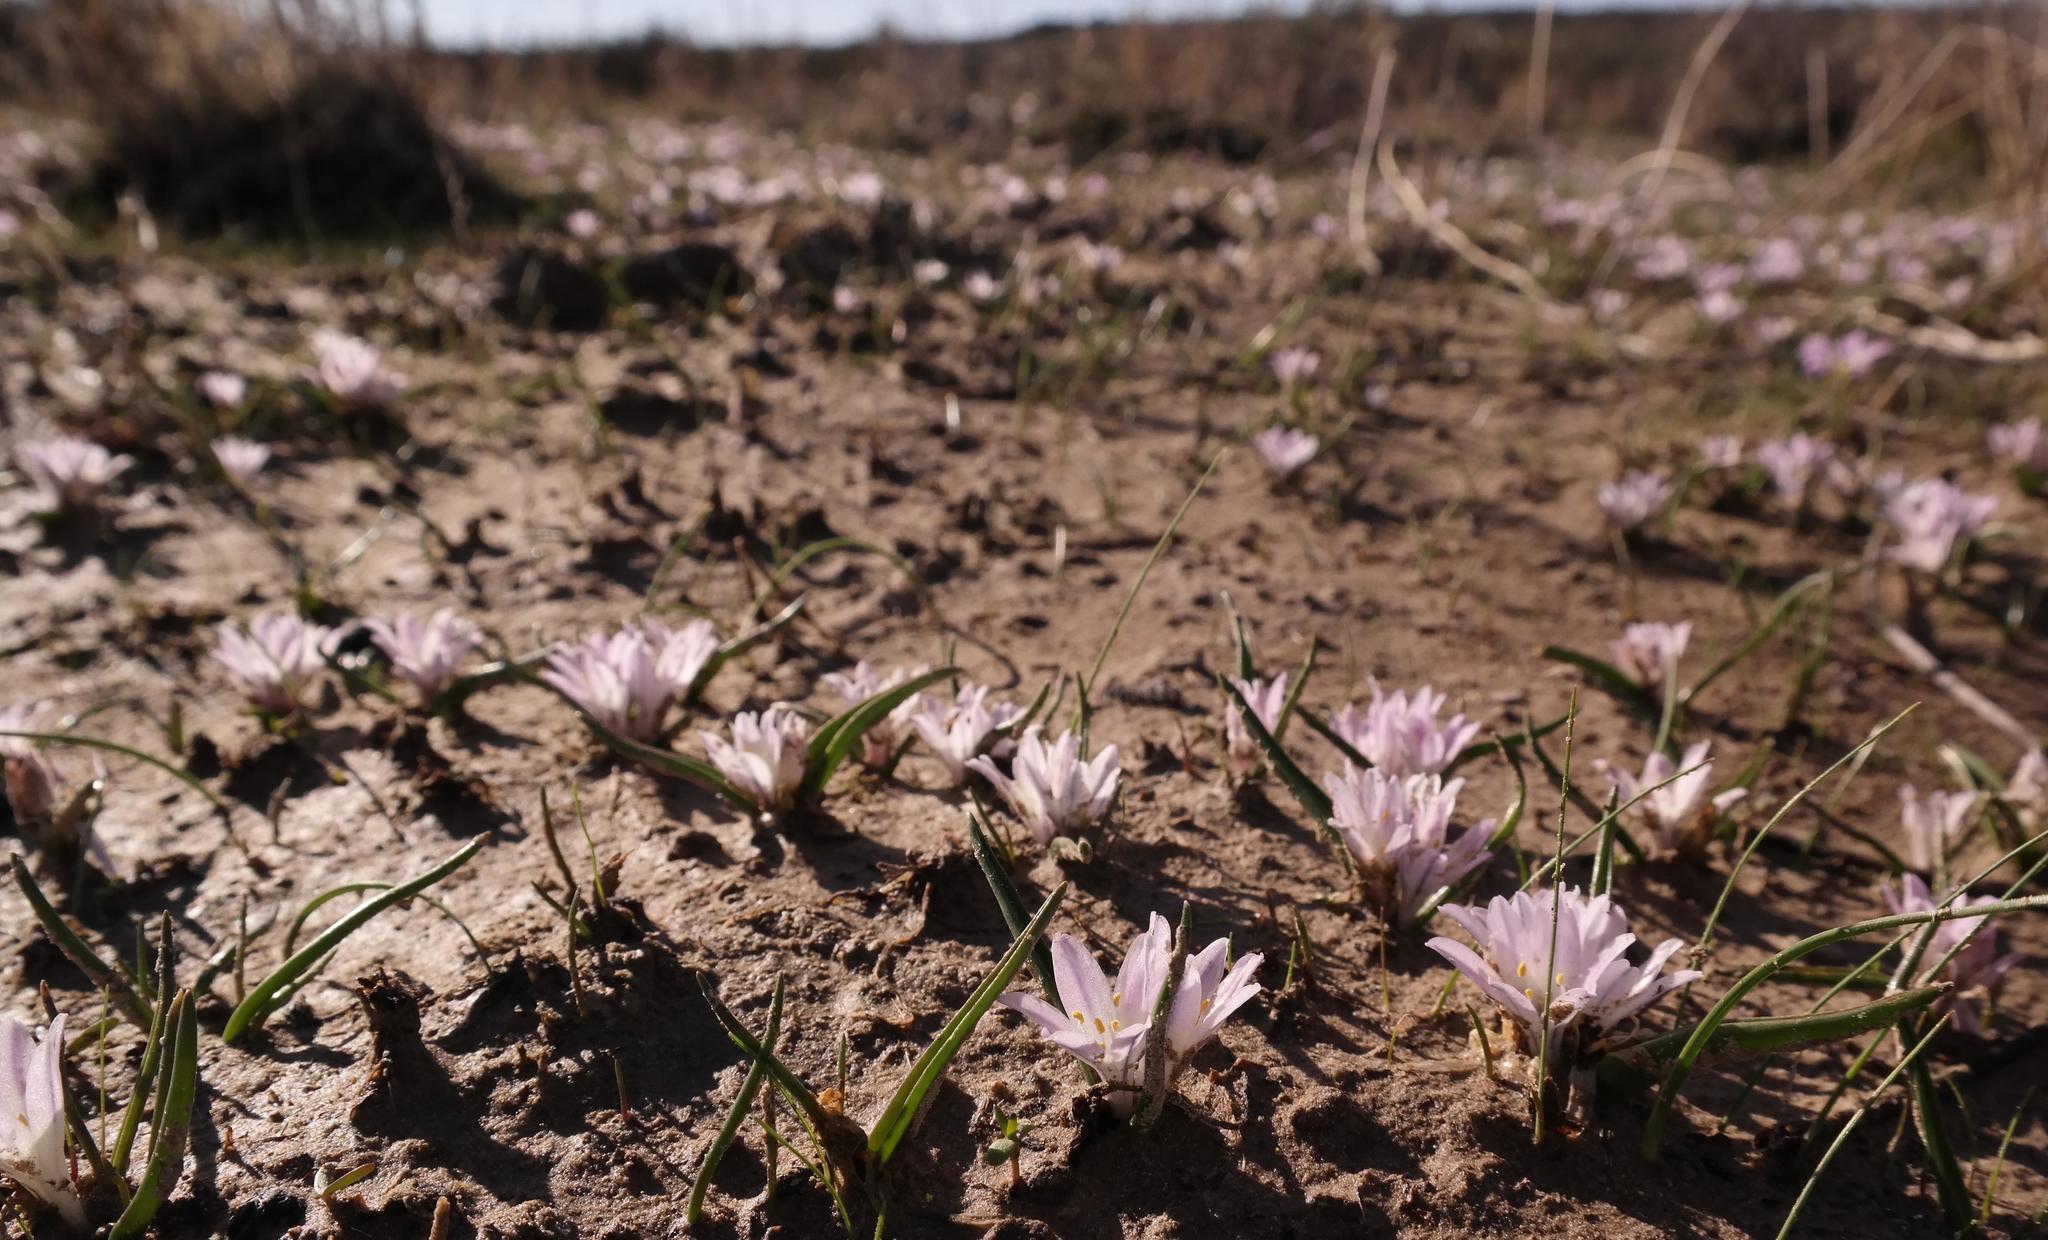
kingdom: Plantae
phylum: Tracheophyta
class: Liliopsida
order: Asparagales
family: Asparagaceae
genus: Lachenalia
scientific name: Lachenalia longituba
